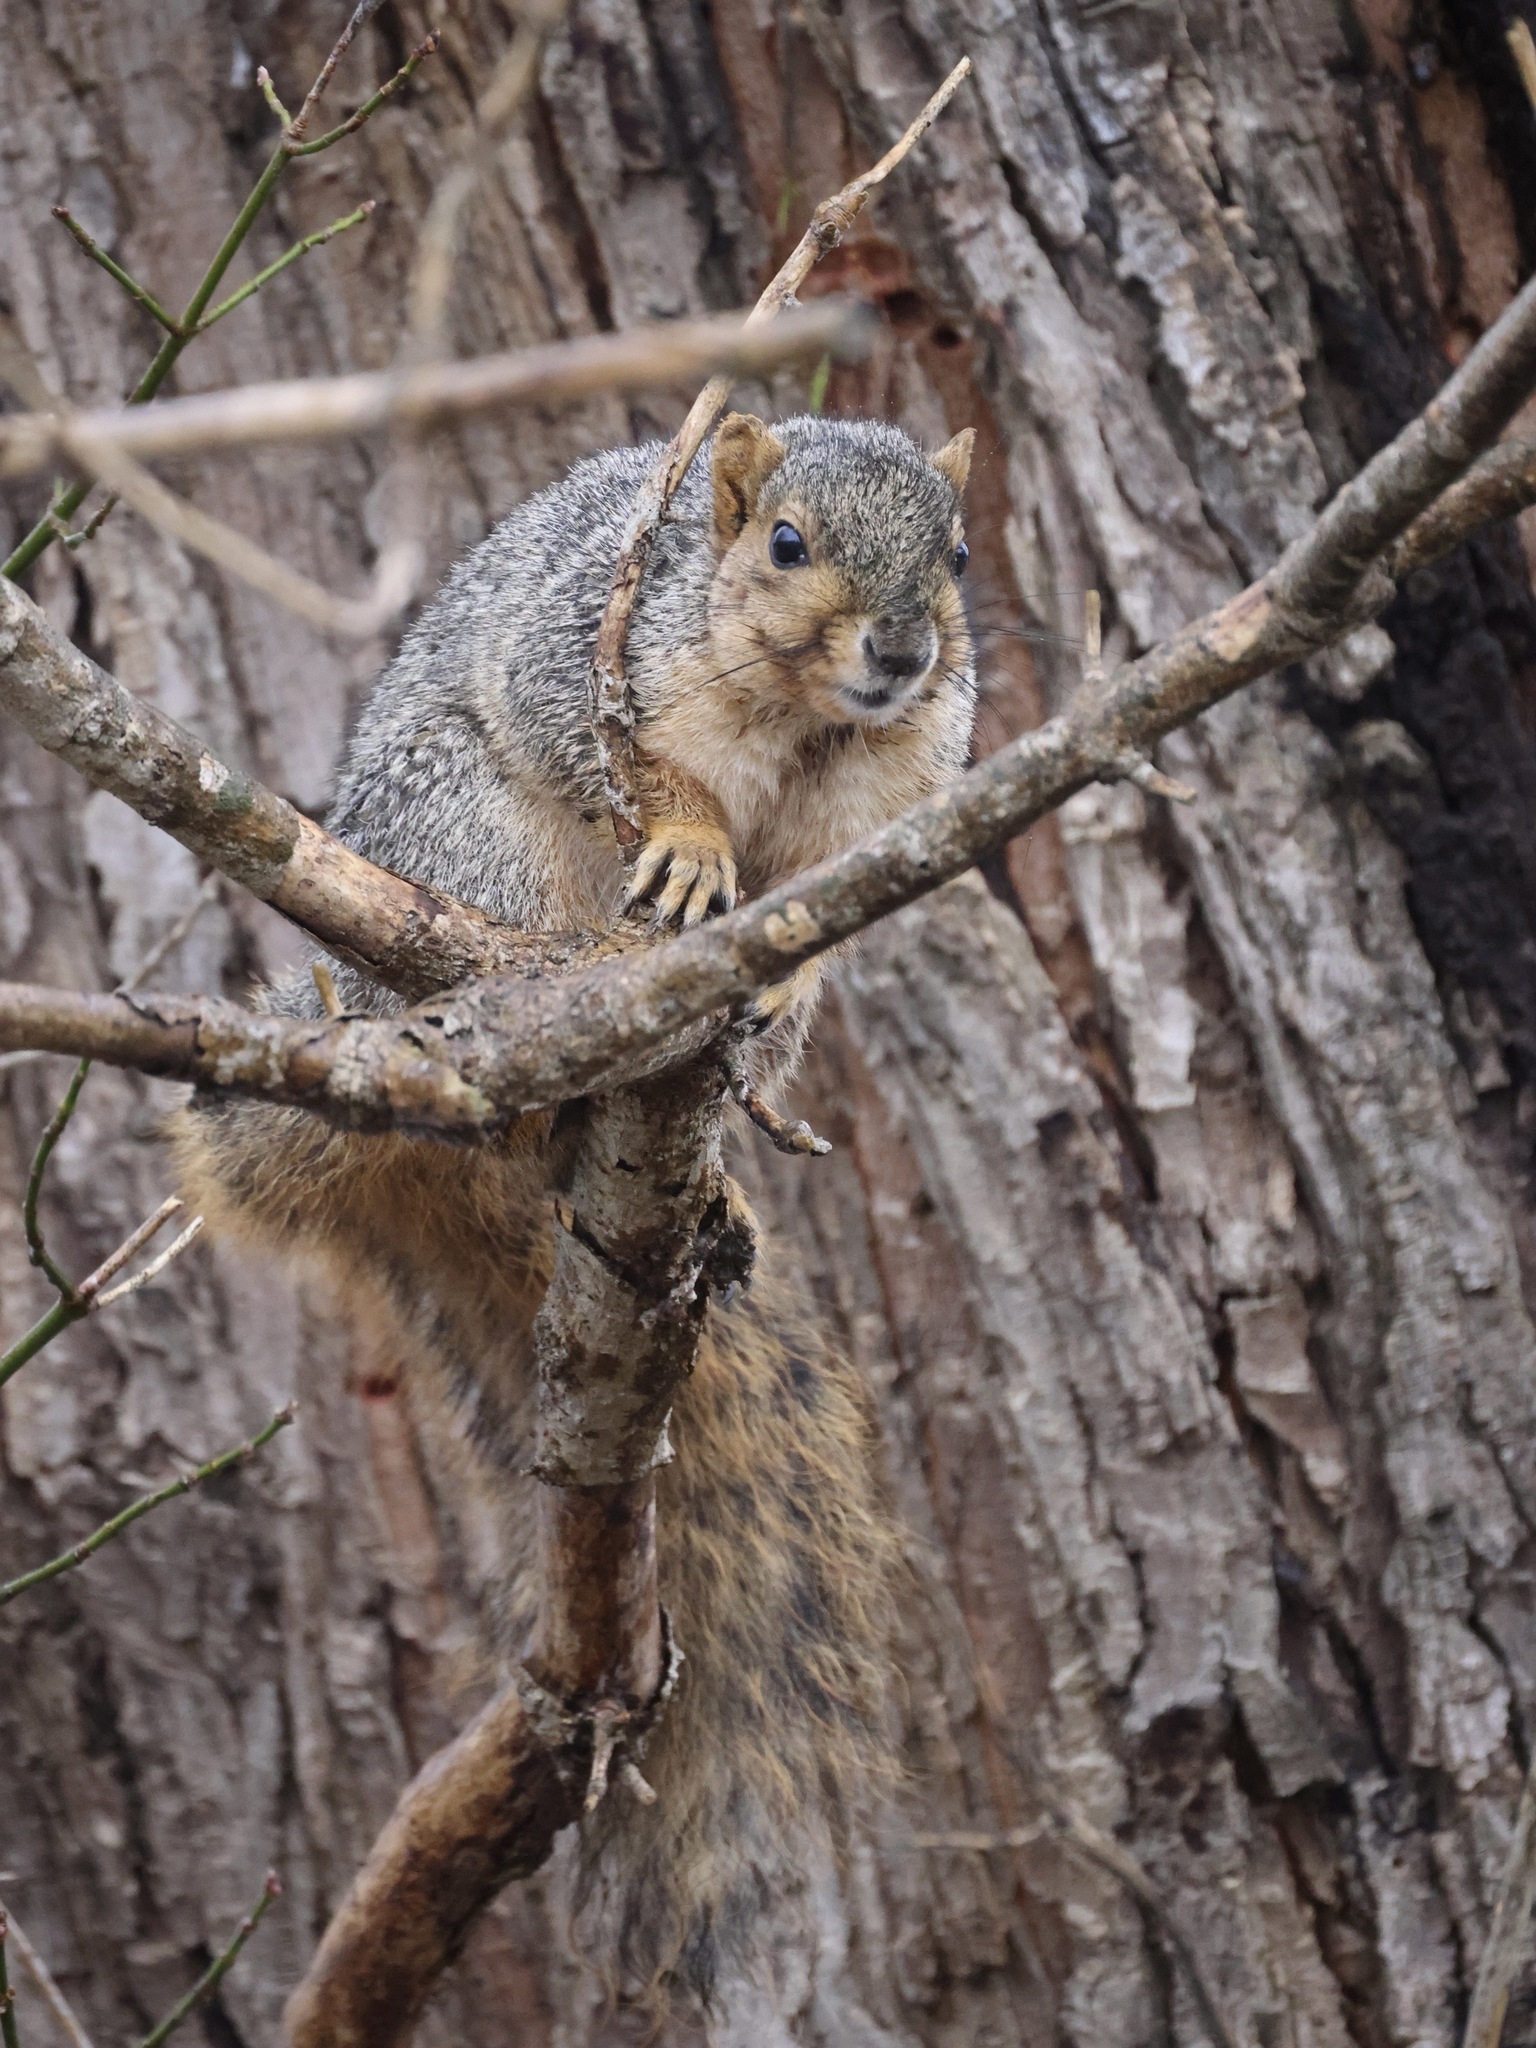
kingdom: Animalia
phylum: Chordata
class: Mammalia
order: Rodentia
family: Sciuridae
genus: Sciurus
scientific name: Sciurus niger
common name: Fox squirrel
